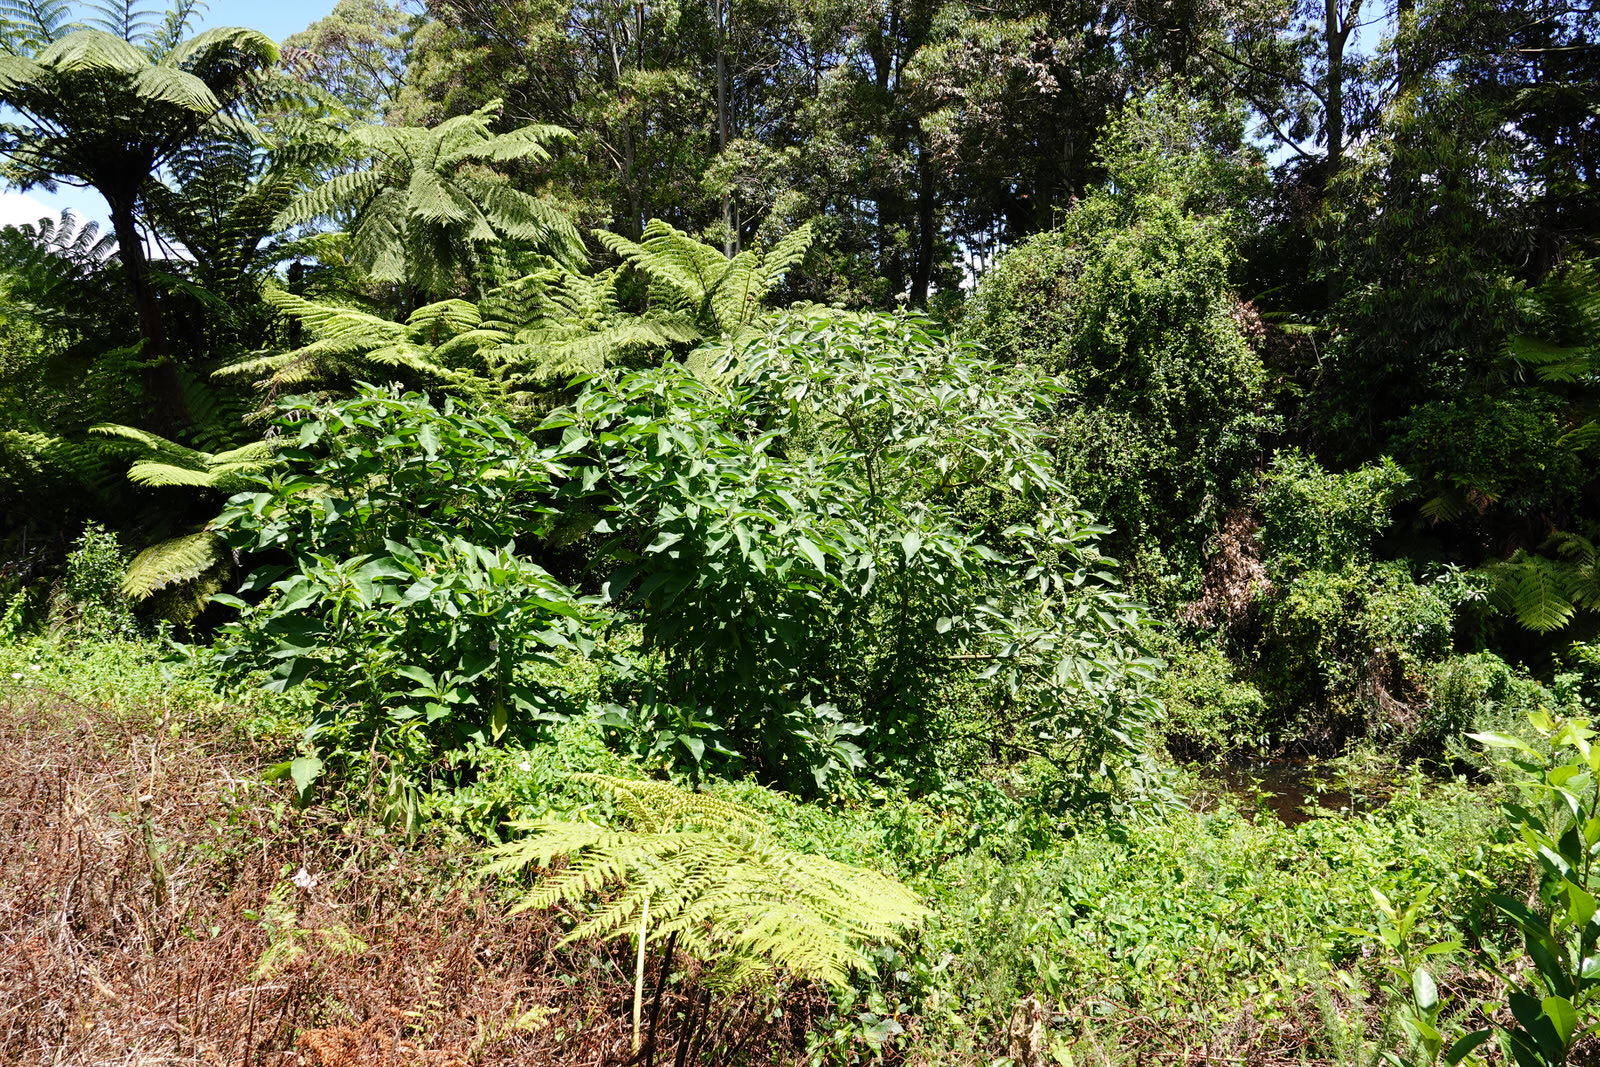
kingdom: Plantae
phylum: Tracheophyta
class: Magnoliopsida
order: Solanales
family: Solanaceae
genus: Solanum
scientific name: Solanum mauritianum
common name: Earleaf nightshade
